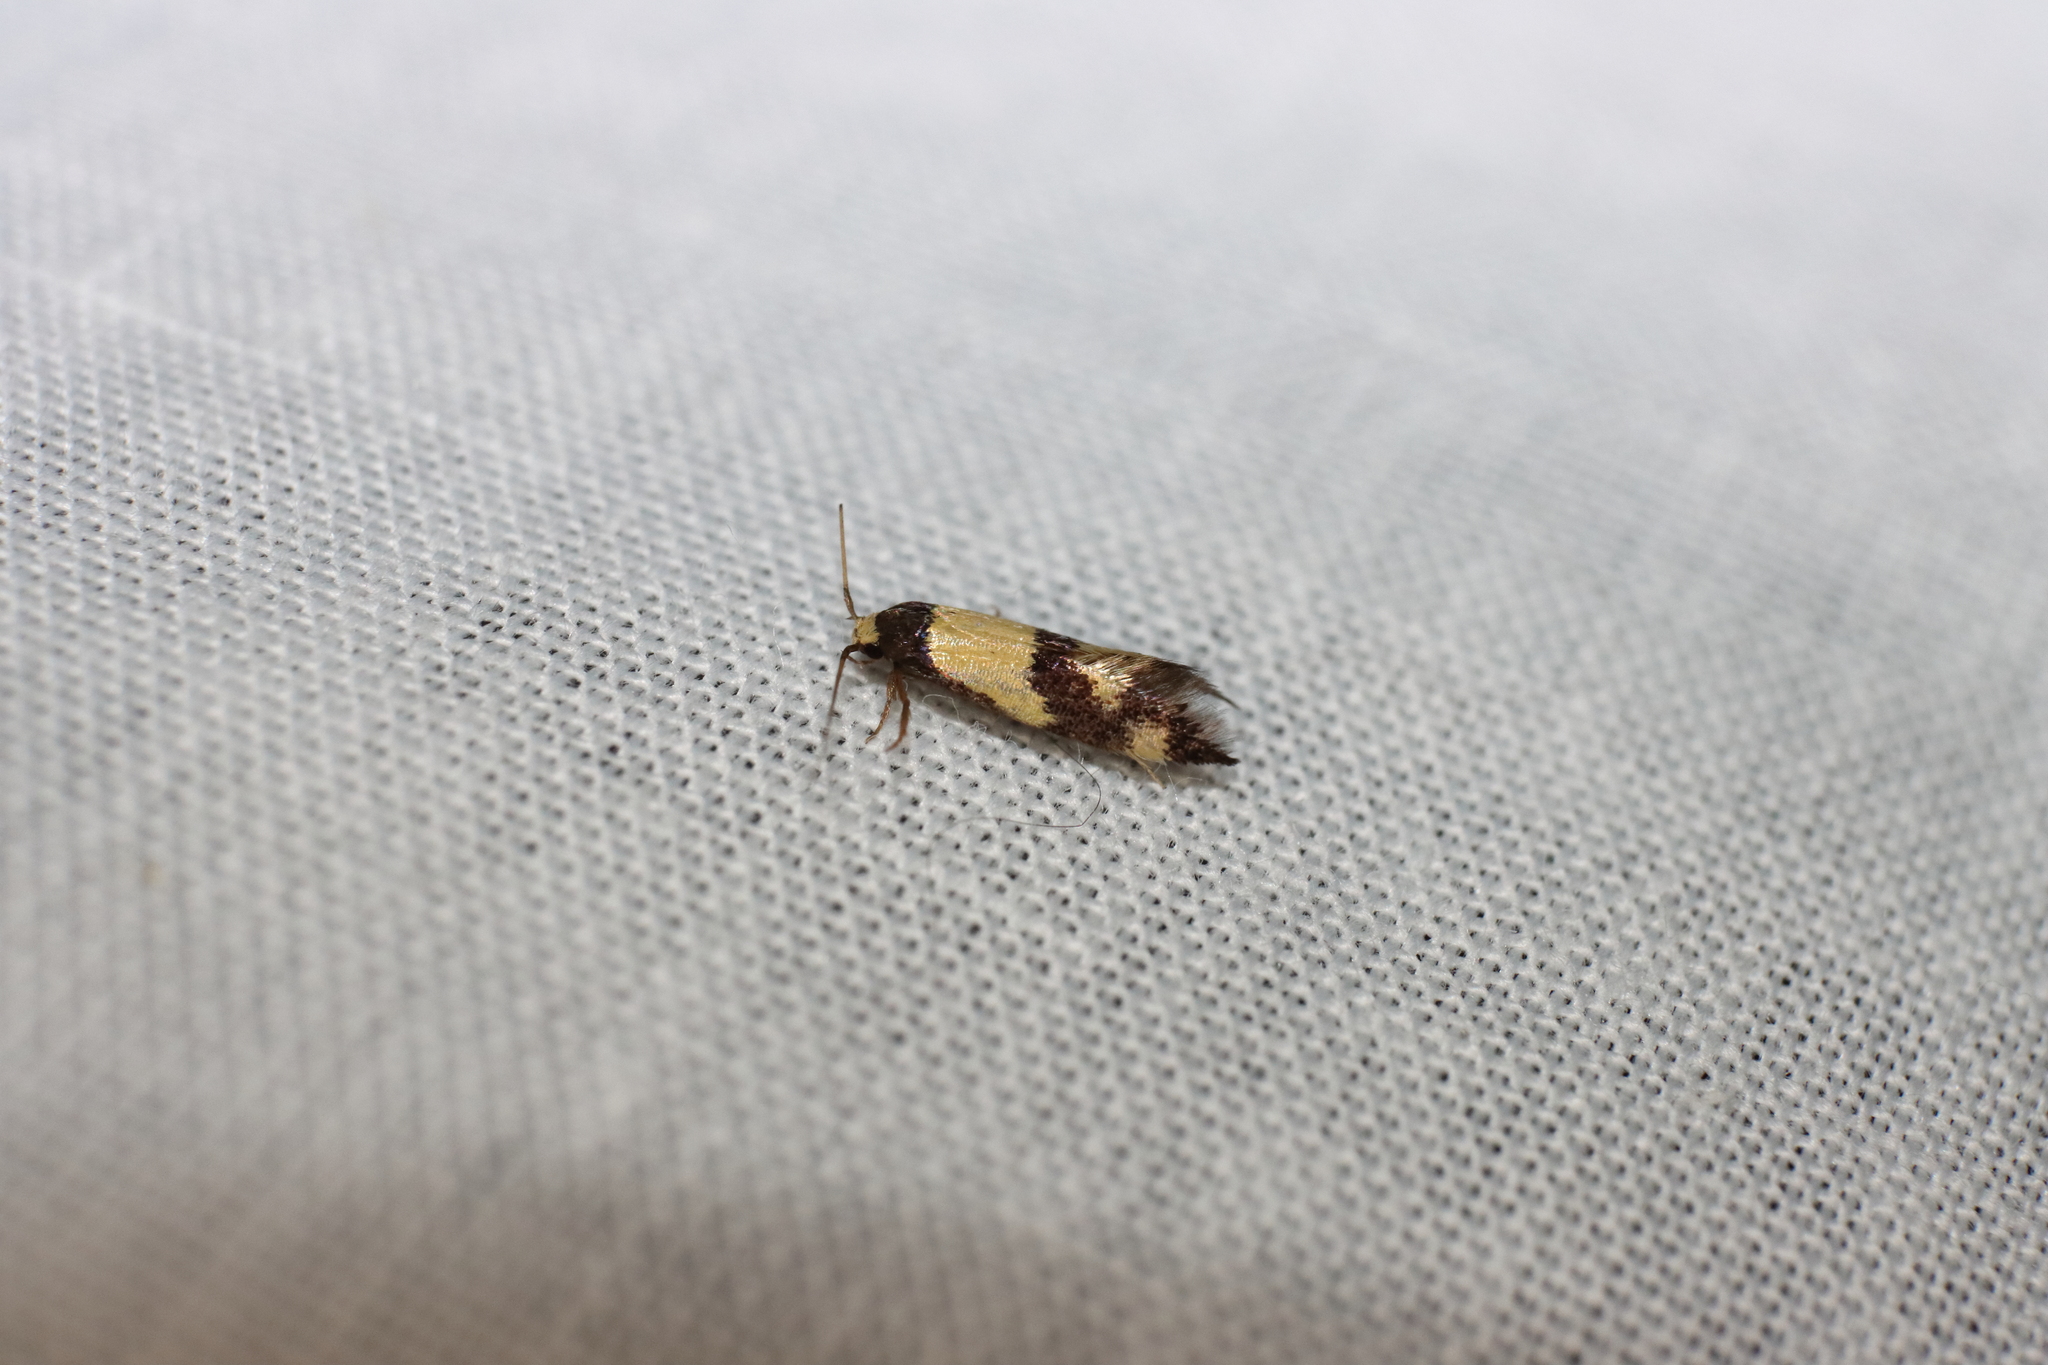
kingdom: Animalia
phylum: Arthropoda
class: Insecta
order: Lepidoptera
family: Tineidae
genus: Opogona
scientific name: Opogona comptella
